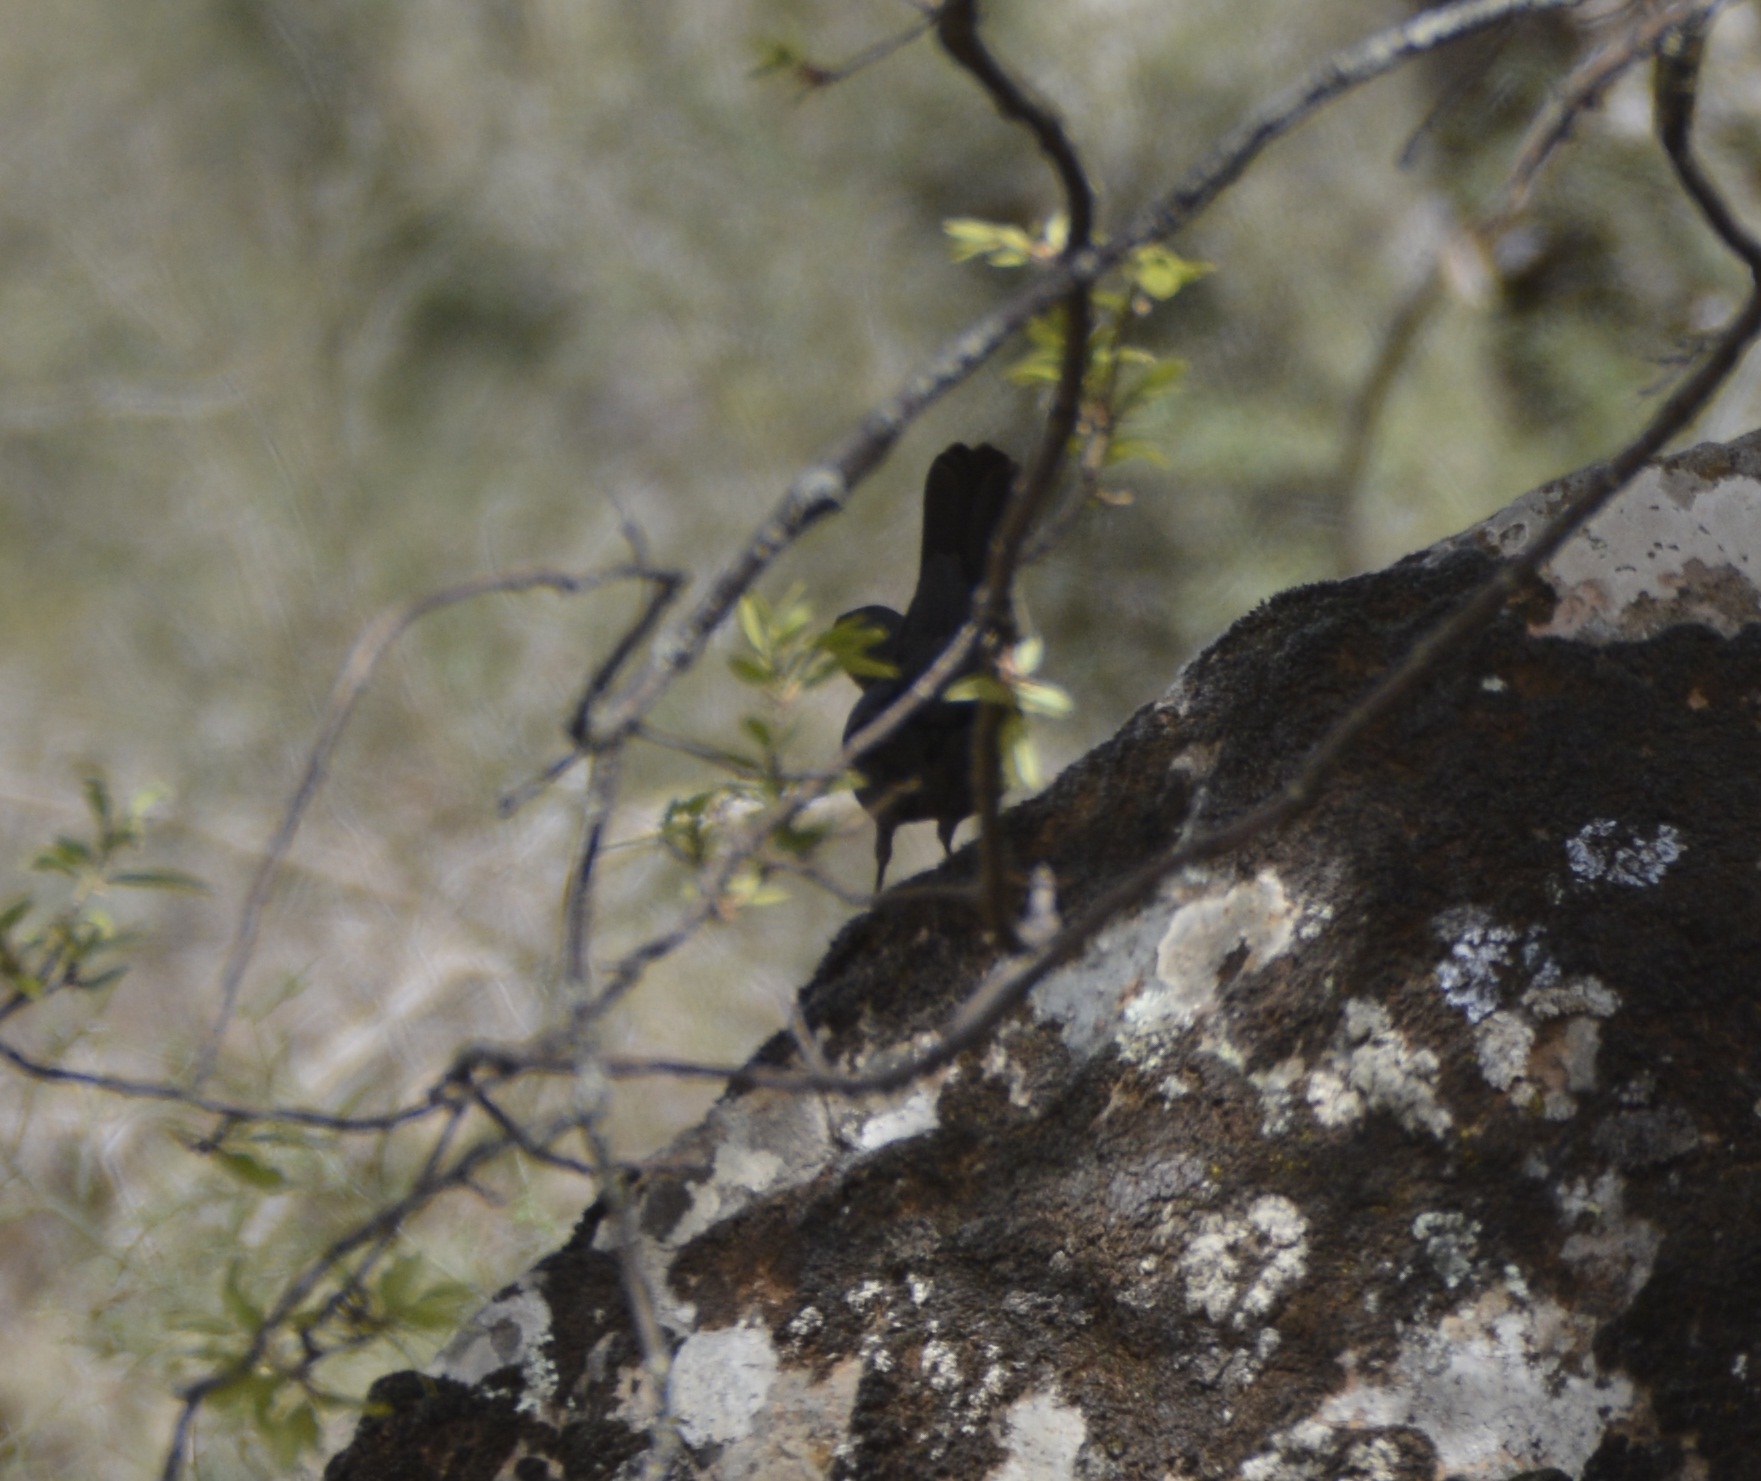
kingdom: Animalia
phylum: Chordata
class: Aves
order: Passeriformes
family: Turdidae
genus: Turdus
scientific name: Turdus merula
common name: Common blackbird
